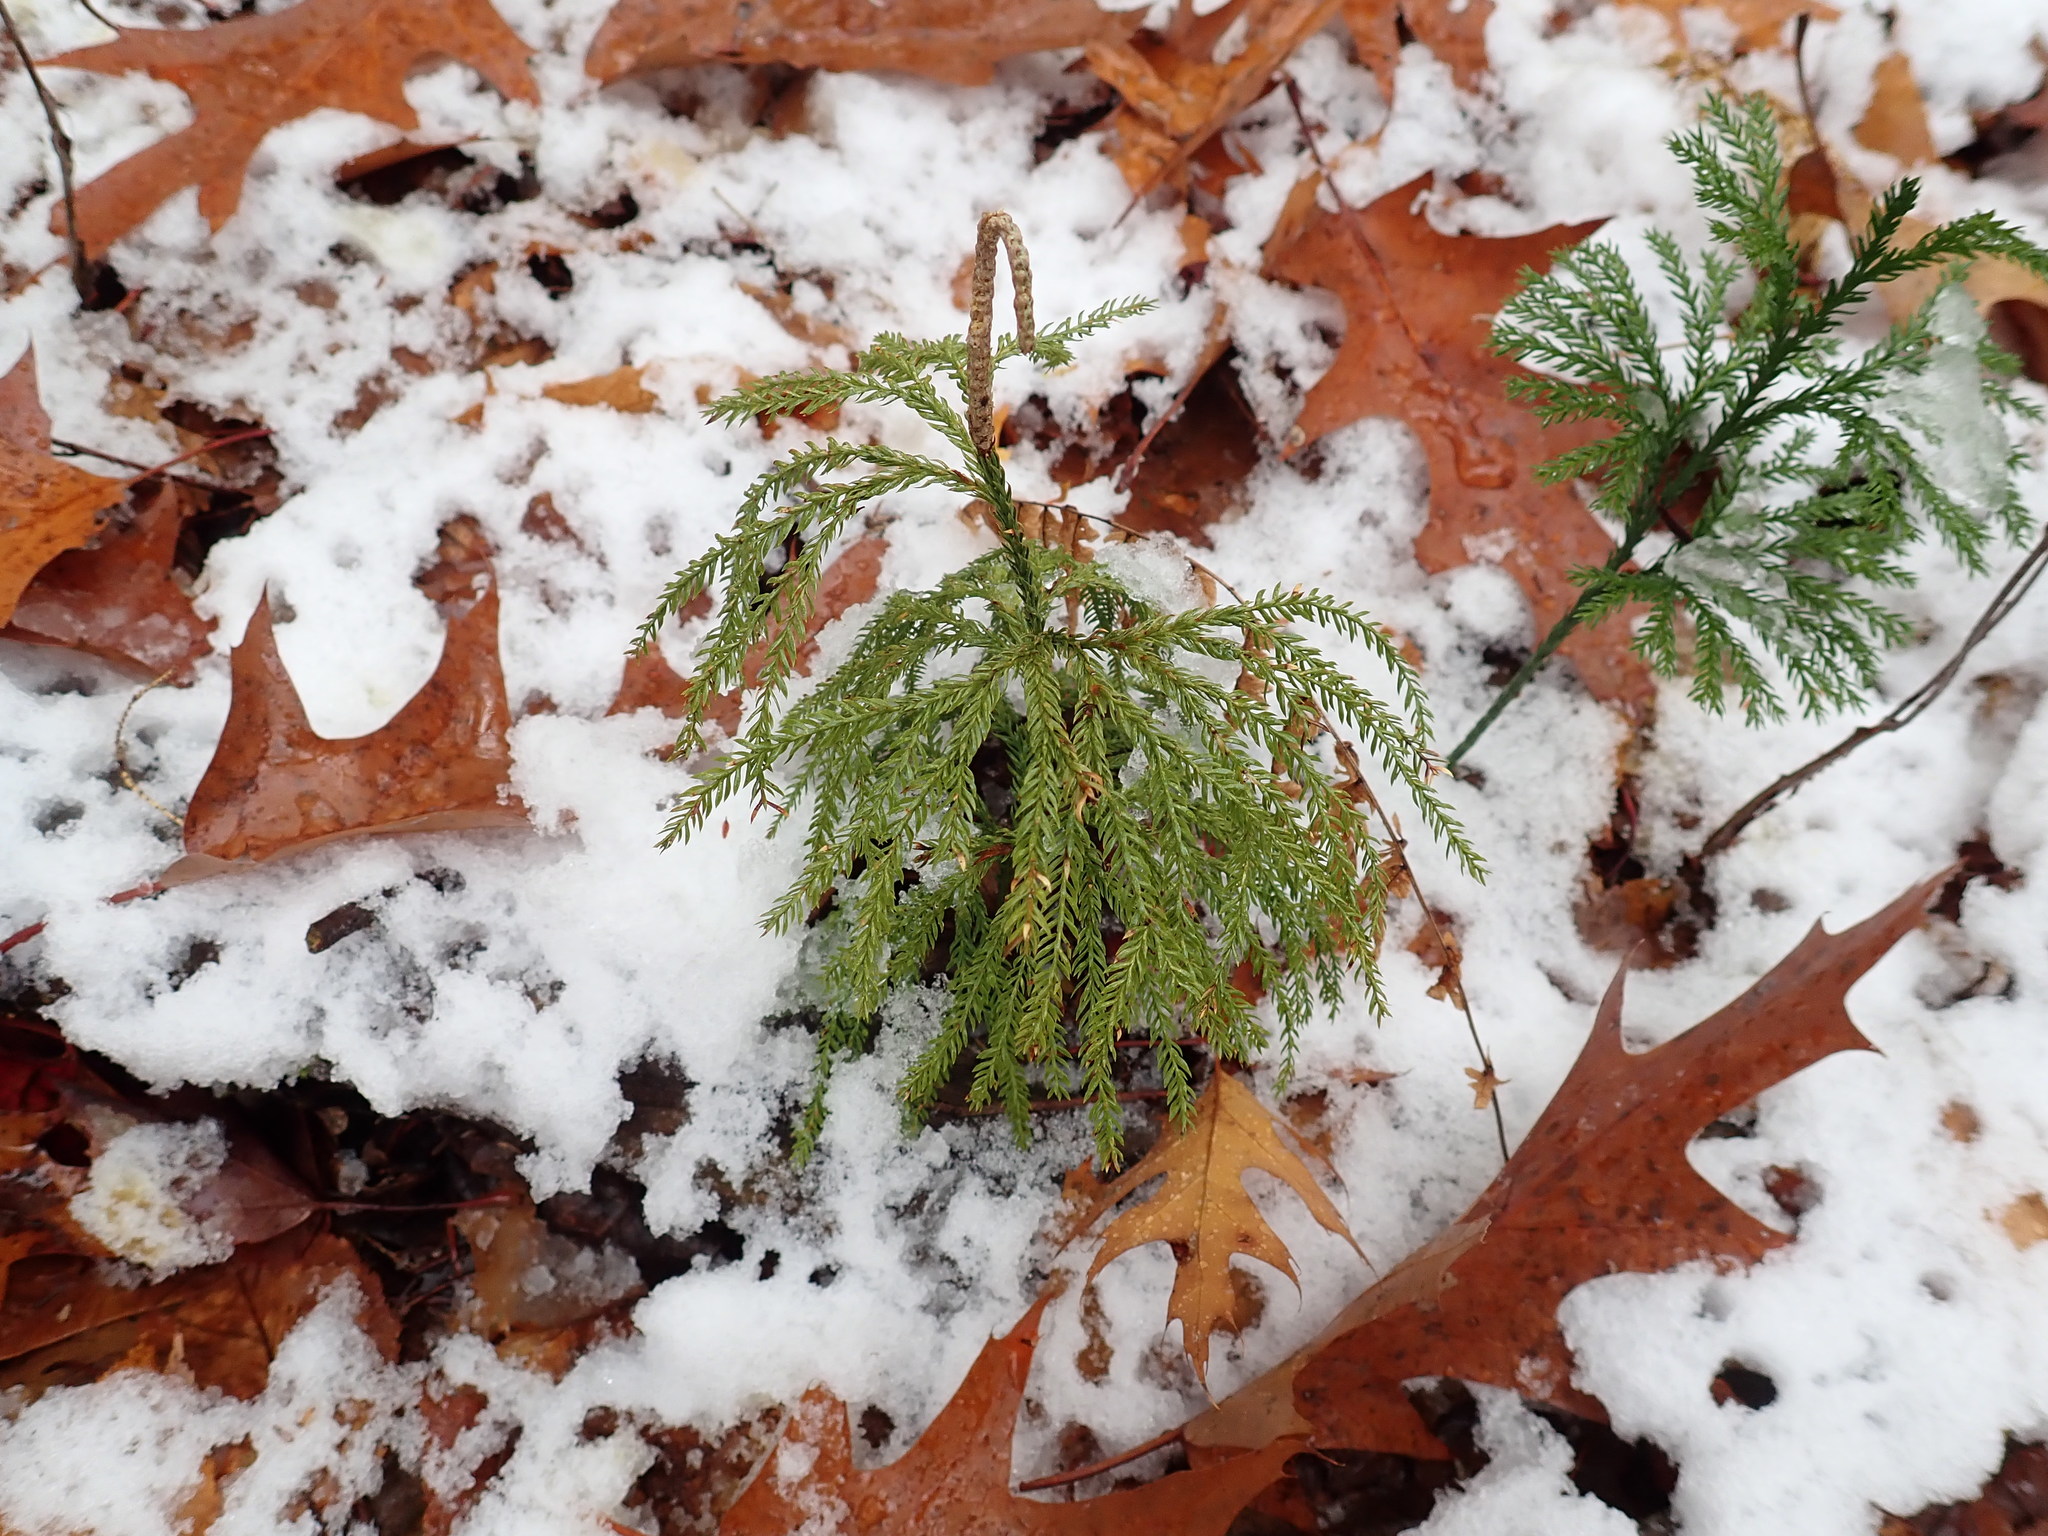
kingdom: Plantae
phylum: Tracheophyta
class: Lycopodiopsida
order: Lycopodiales
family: Lycopodiaceae
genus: Dendrolycopodium
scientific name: Dendrolycopodium obscurum
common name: Common ground-pine
